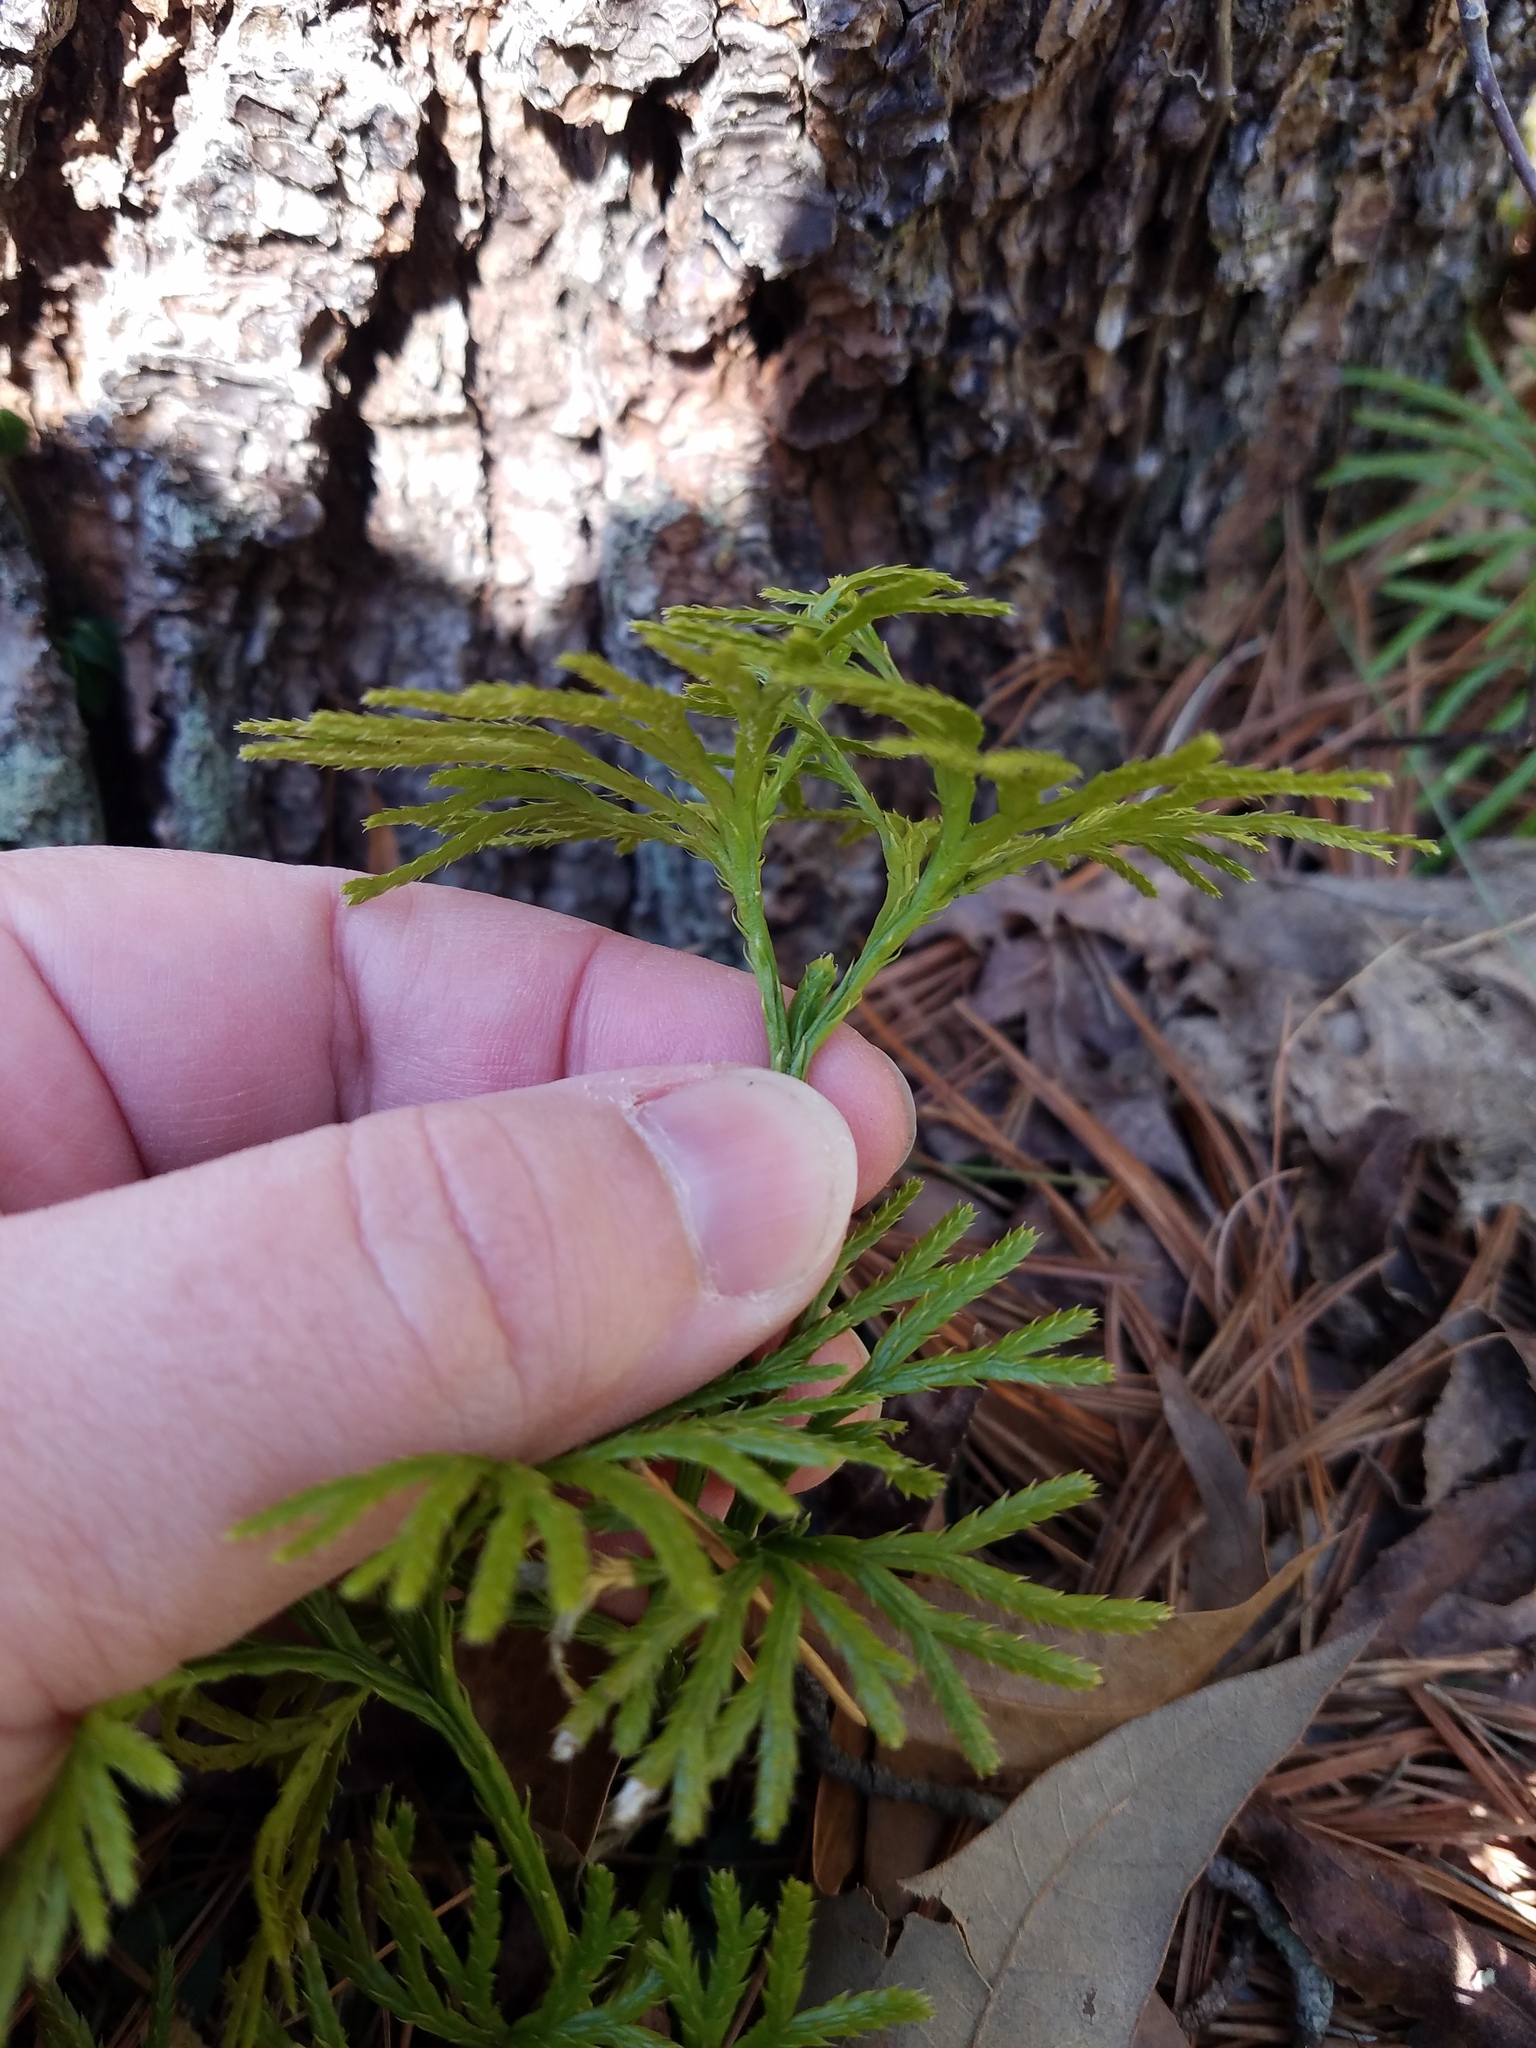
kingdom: Plantae
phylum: Tracheophyta
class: Lycopodiopsida
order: Lycopodiales
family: Lycopodiaceae
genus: Diphasiastrum
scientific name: Diphasiastrum digitatum
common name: Southern running-pine
